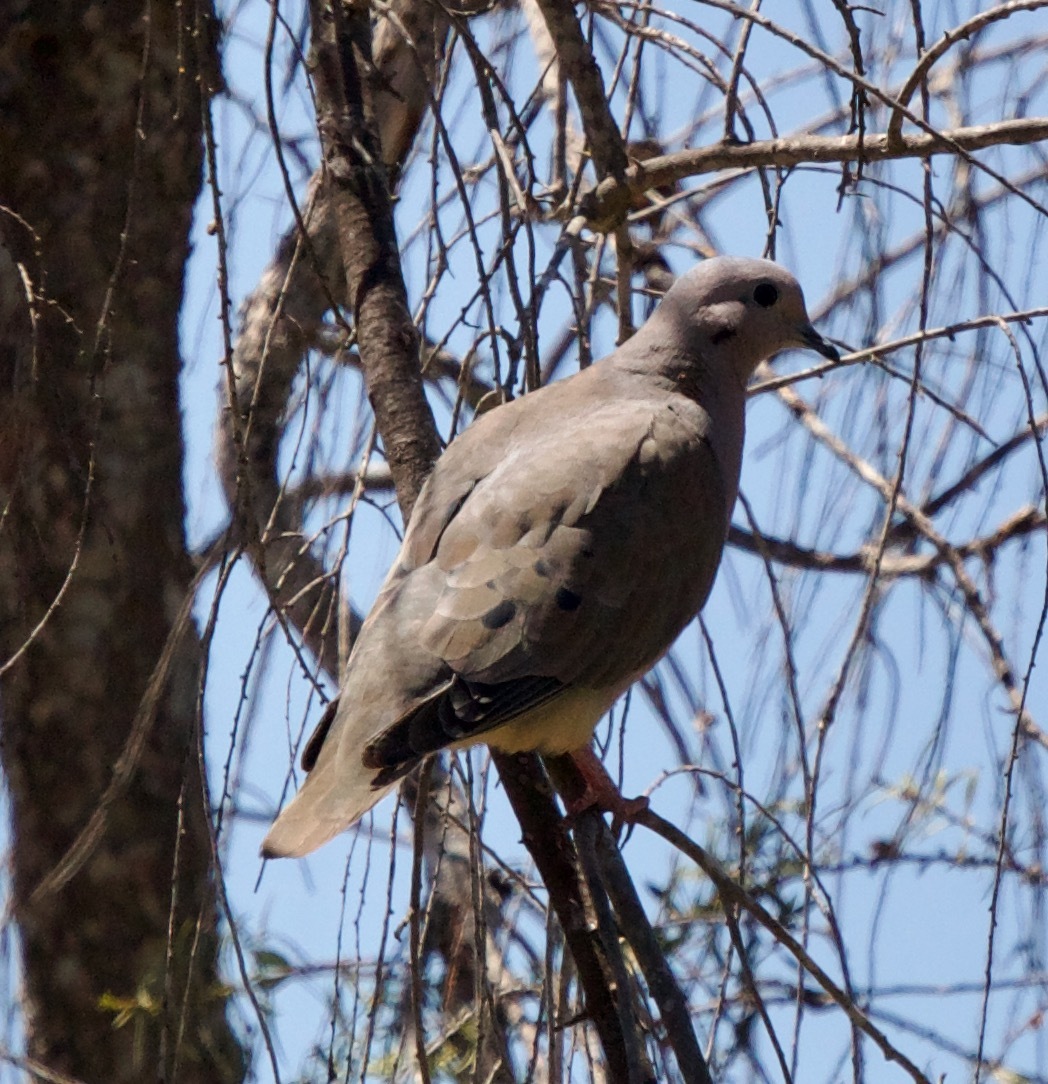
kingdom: Animalia
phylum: Chordata
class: Aves
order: Columbiformes
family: Columbidae
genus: Zenaida
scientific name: Zenaida auriculata
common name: Eared dove
